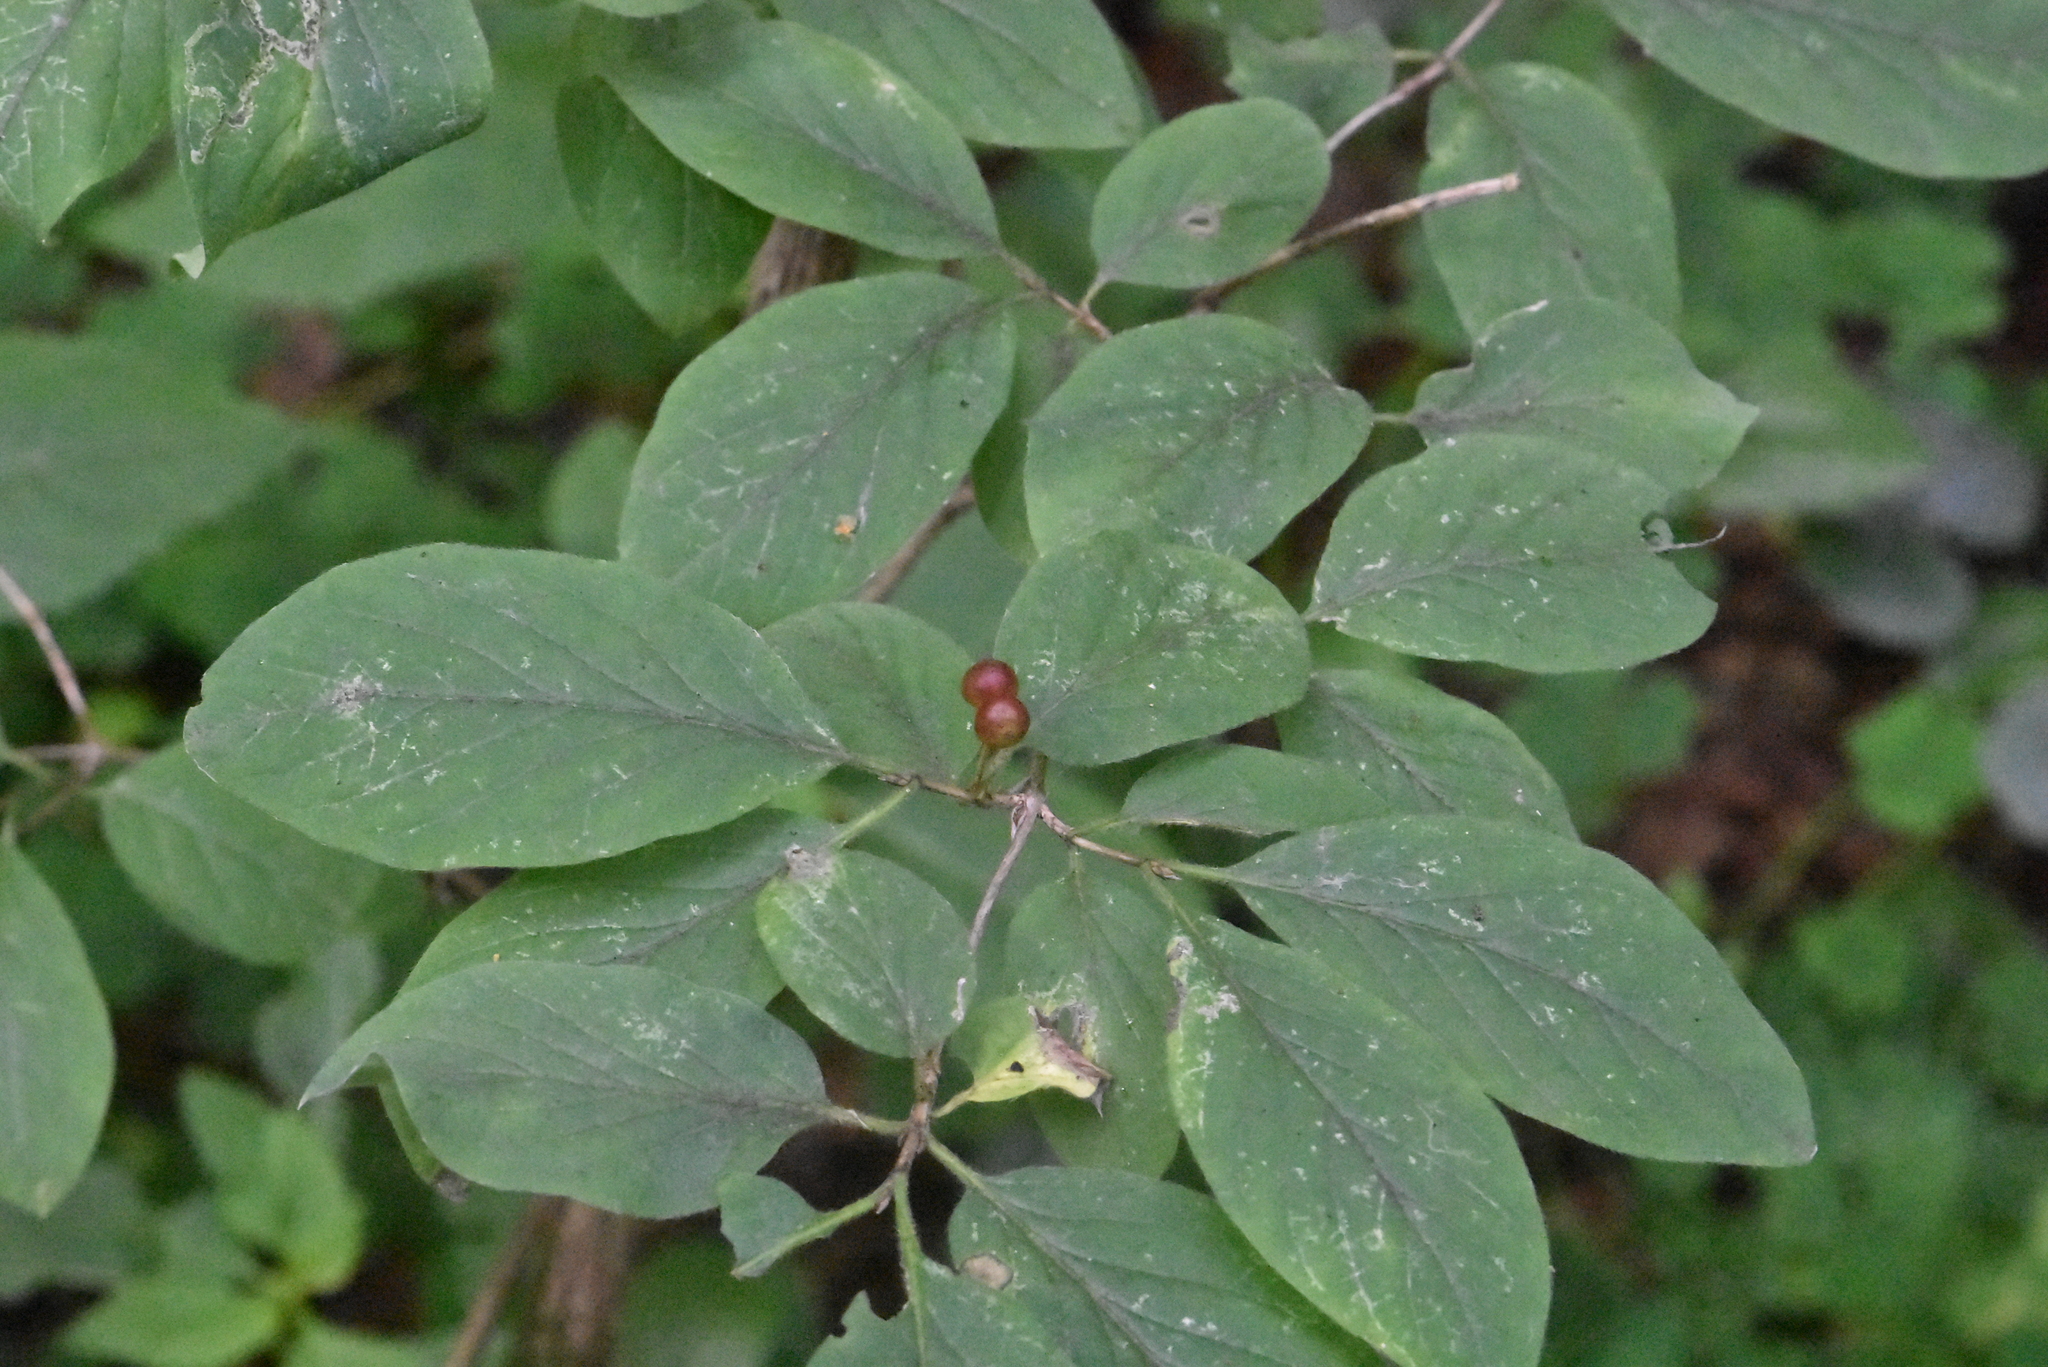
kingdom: Plantae
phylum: Tracheophyta
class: Magnoliopsida
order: Dipsacales
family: Caprifoliaceae
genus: Lonicera
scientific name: Lonicera xylosteum
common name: Fly honeysuckle
